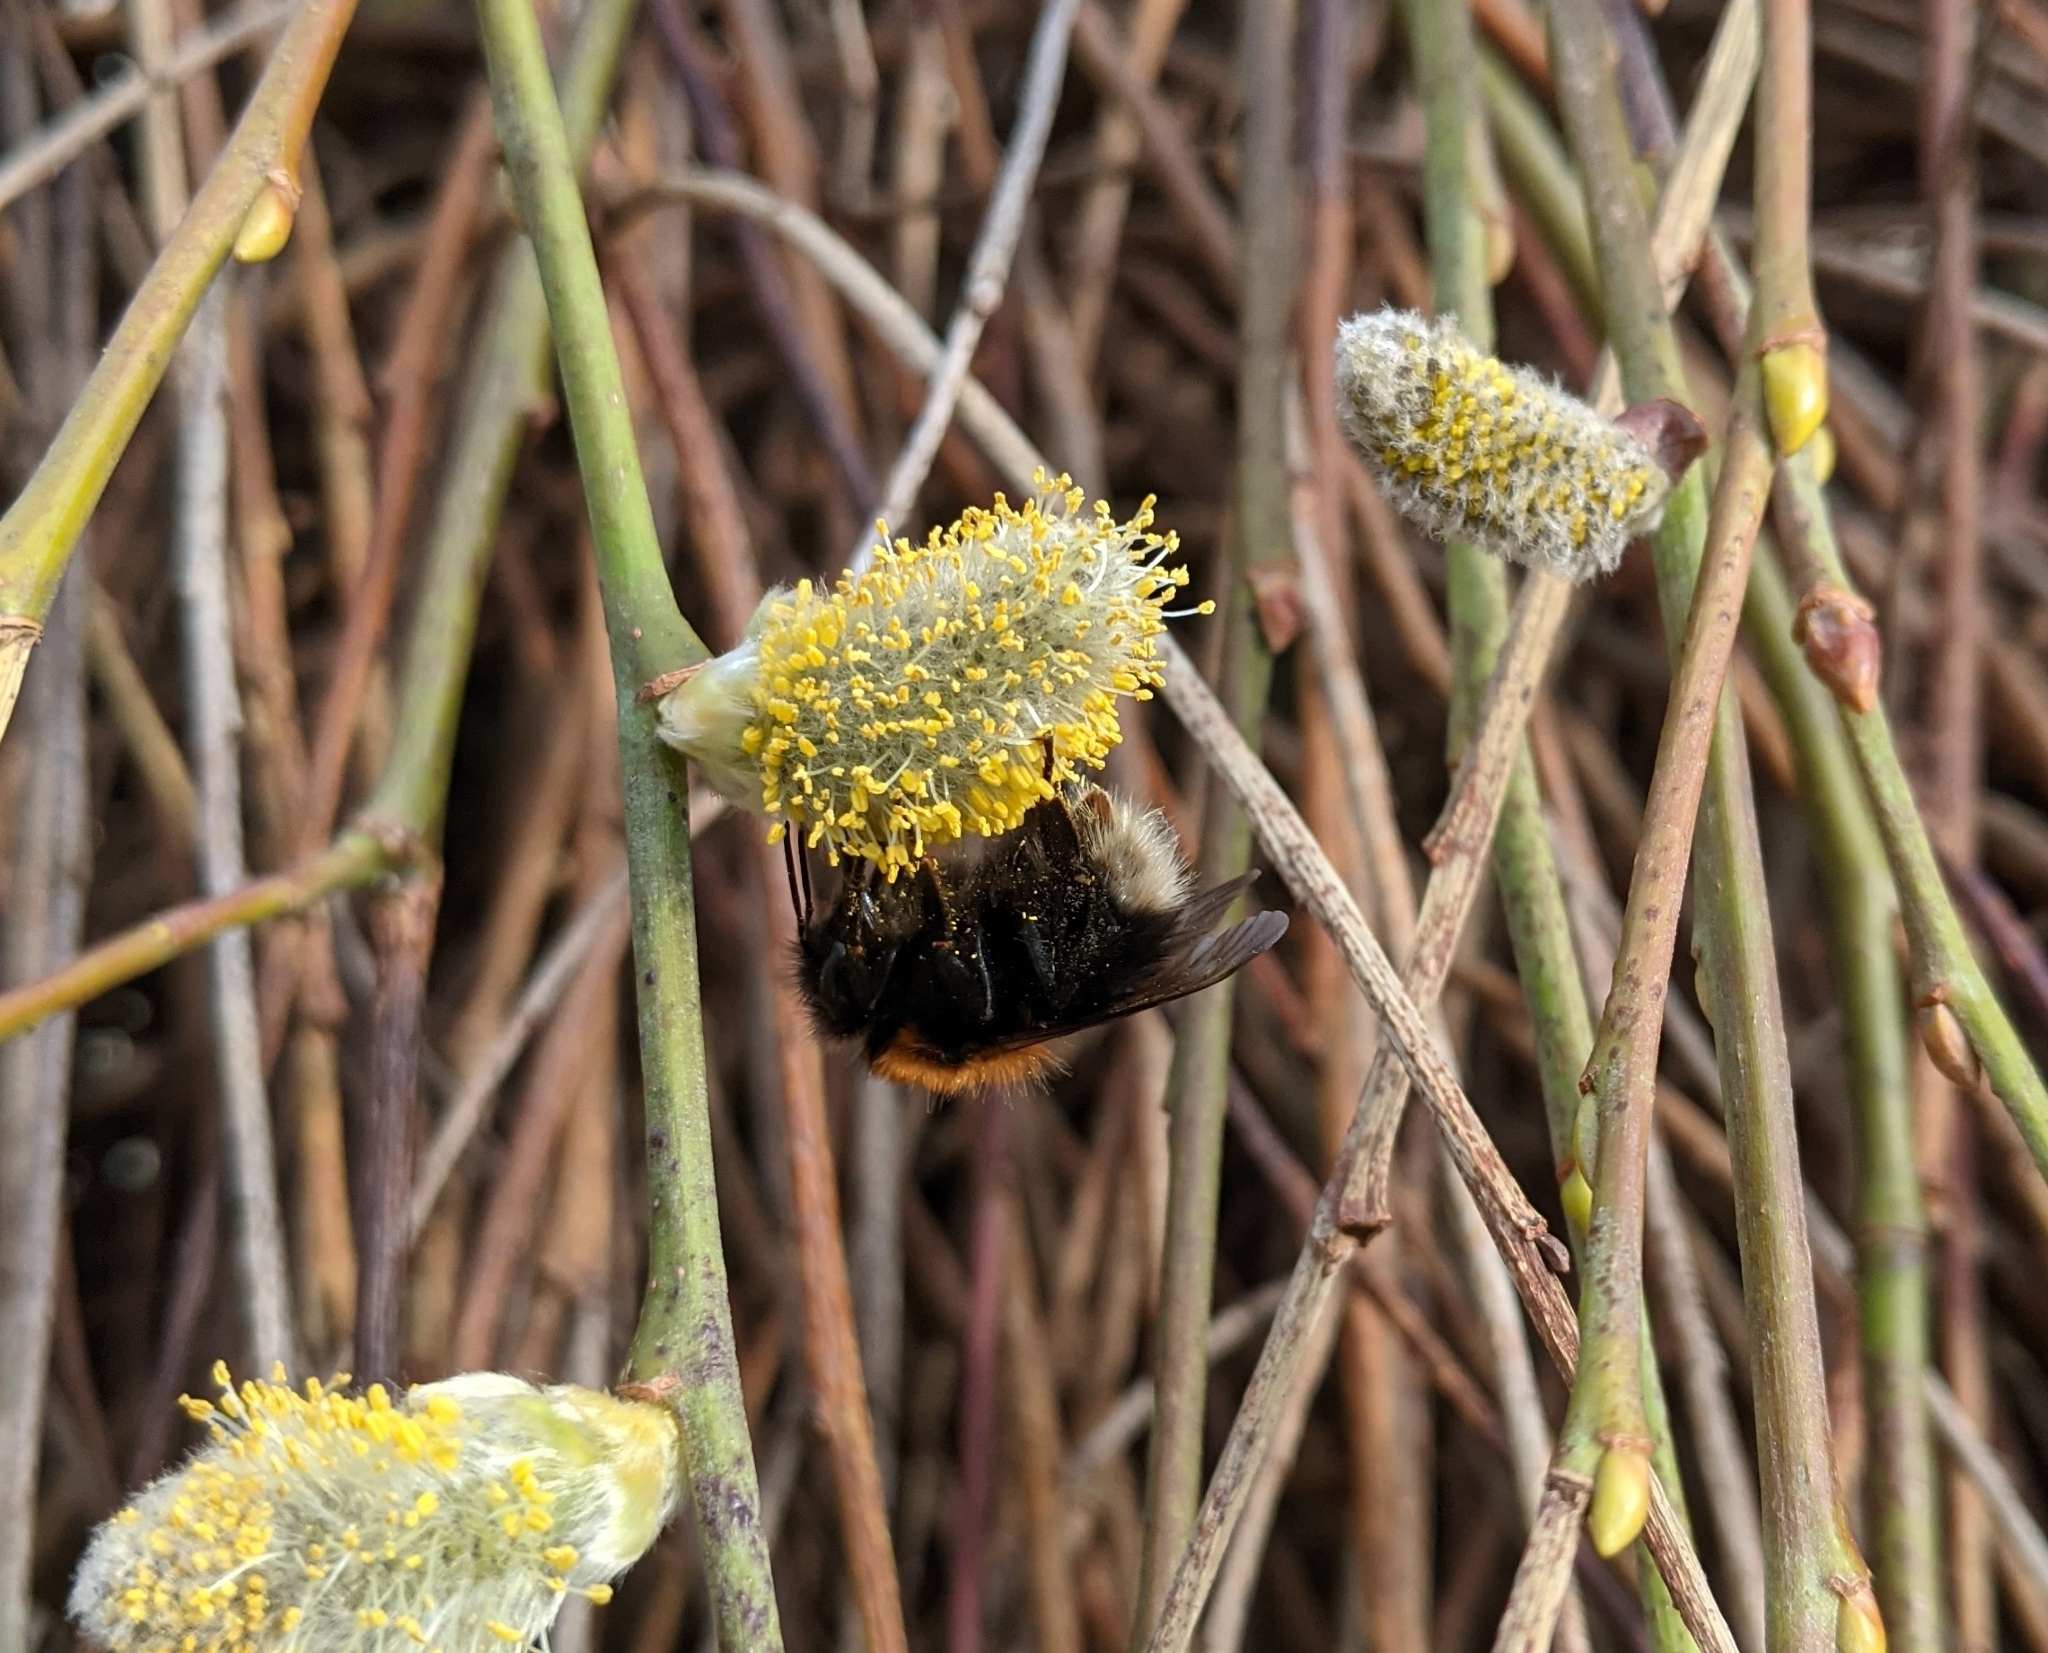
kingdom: Animalia
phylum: Arthropoda
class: Insecta
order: Hymenoptera
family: Apidae
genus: Bombus
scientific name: Bombus hypnorum
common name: New garden bumblebee
